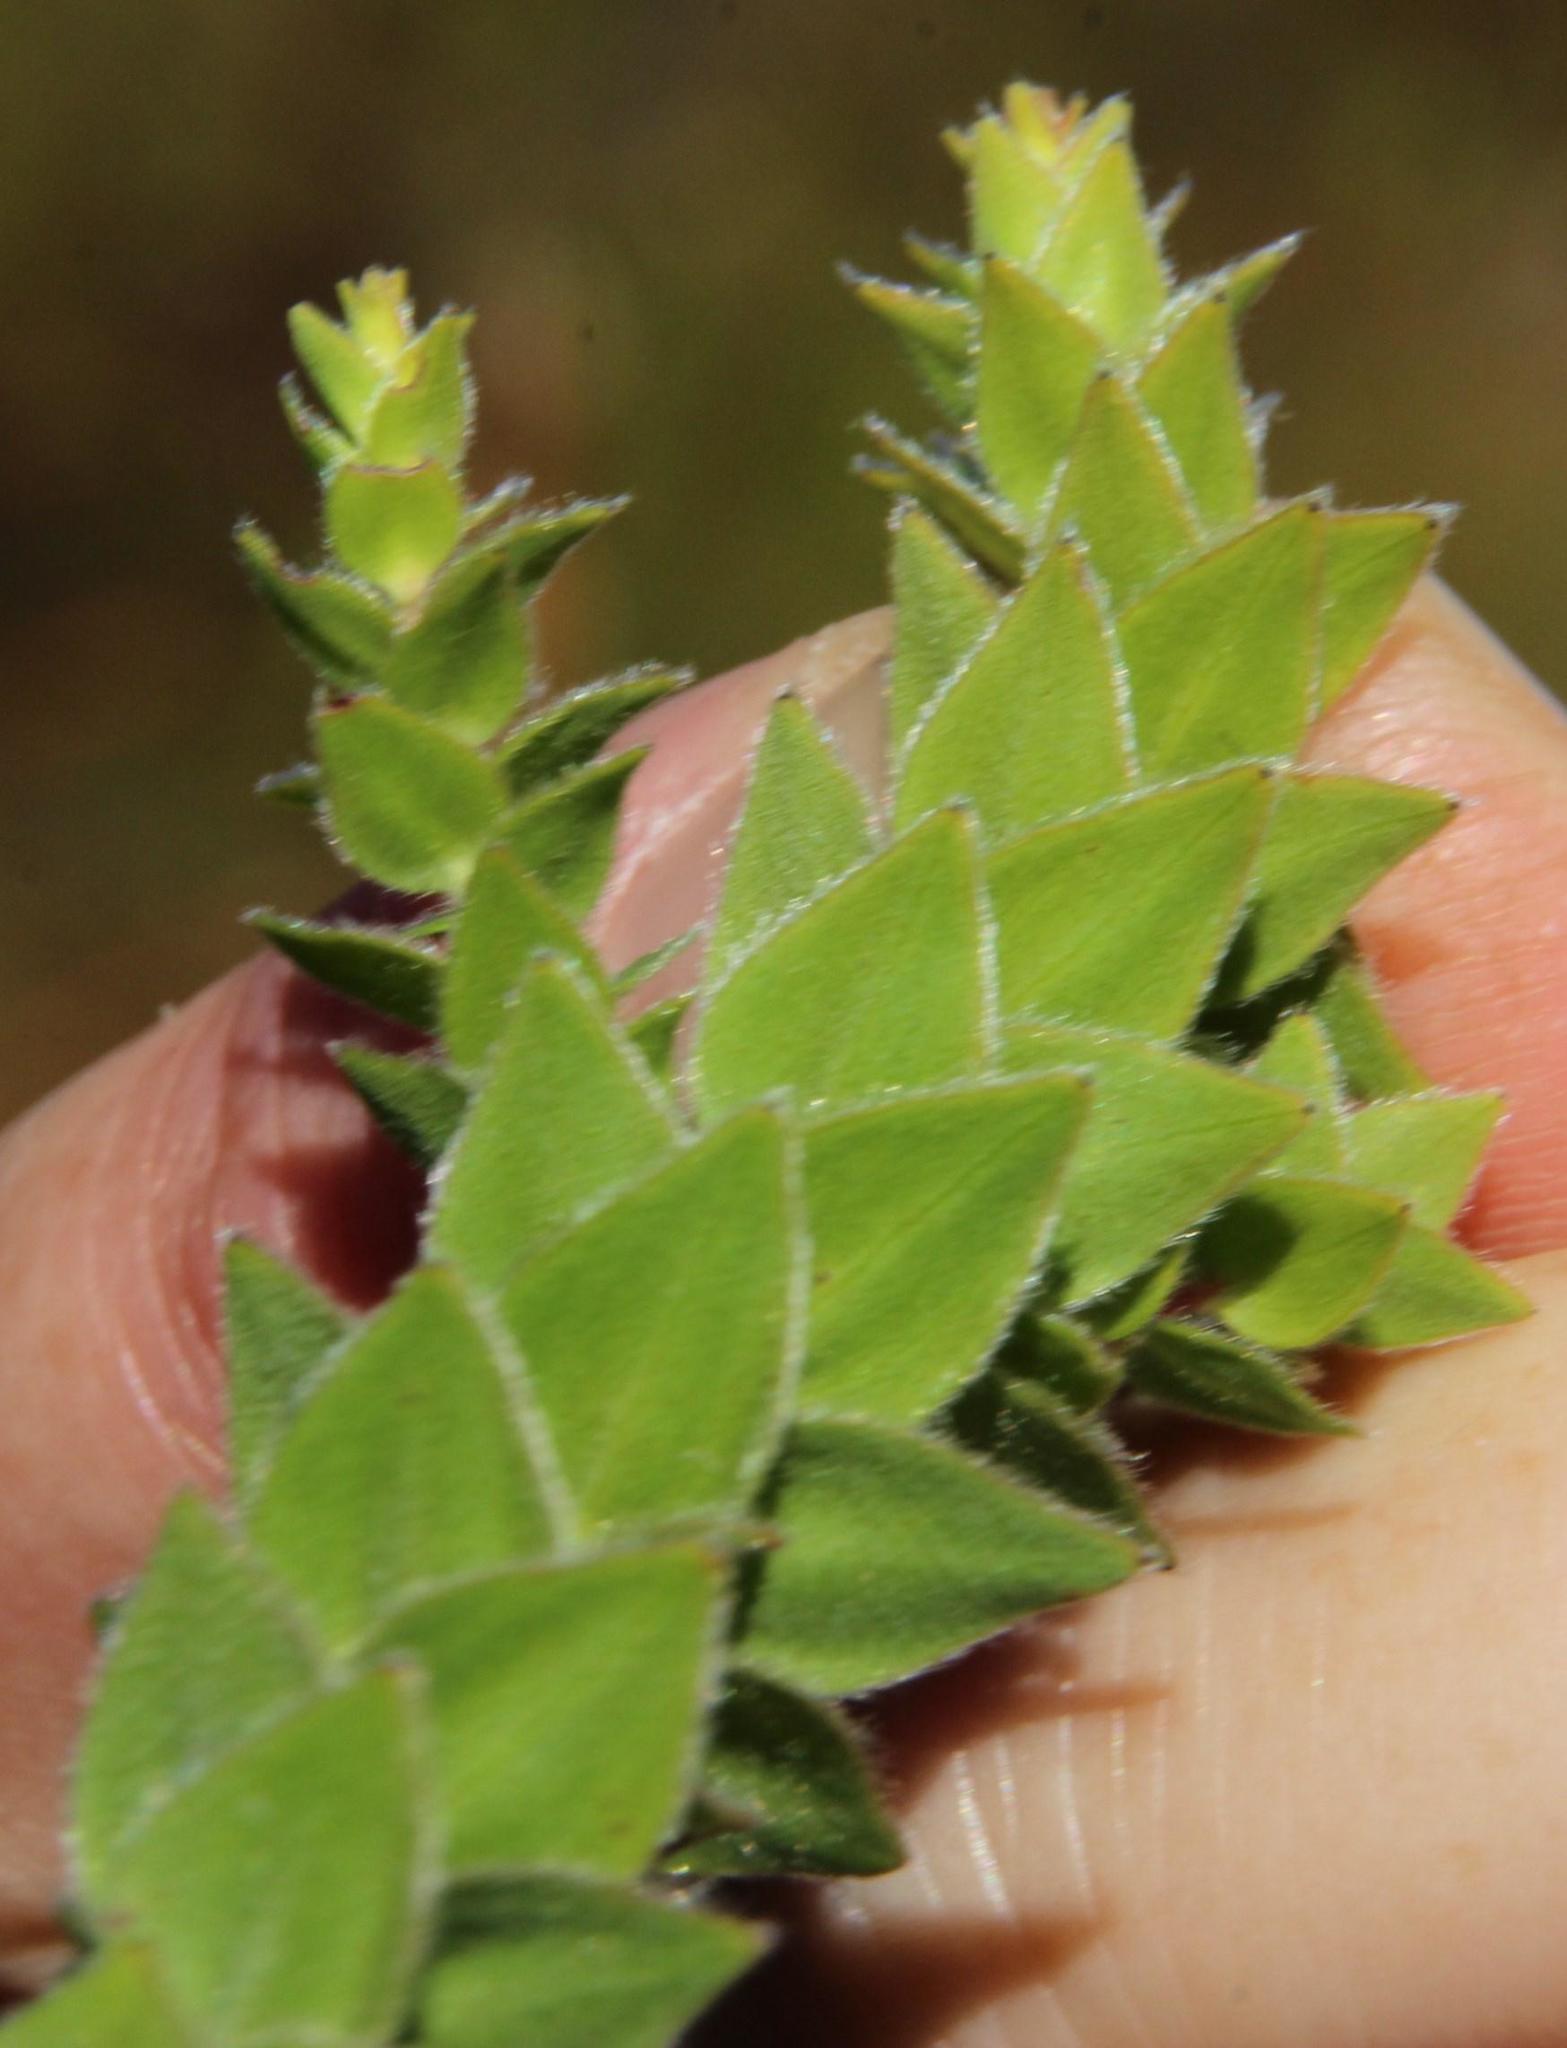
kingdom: Plantae
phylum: Tracheophyta
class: Magnoliopsida
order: Bruniales
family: Bruniaceae
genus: Brunia
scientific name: Brunia cordata
